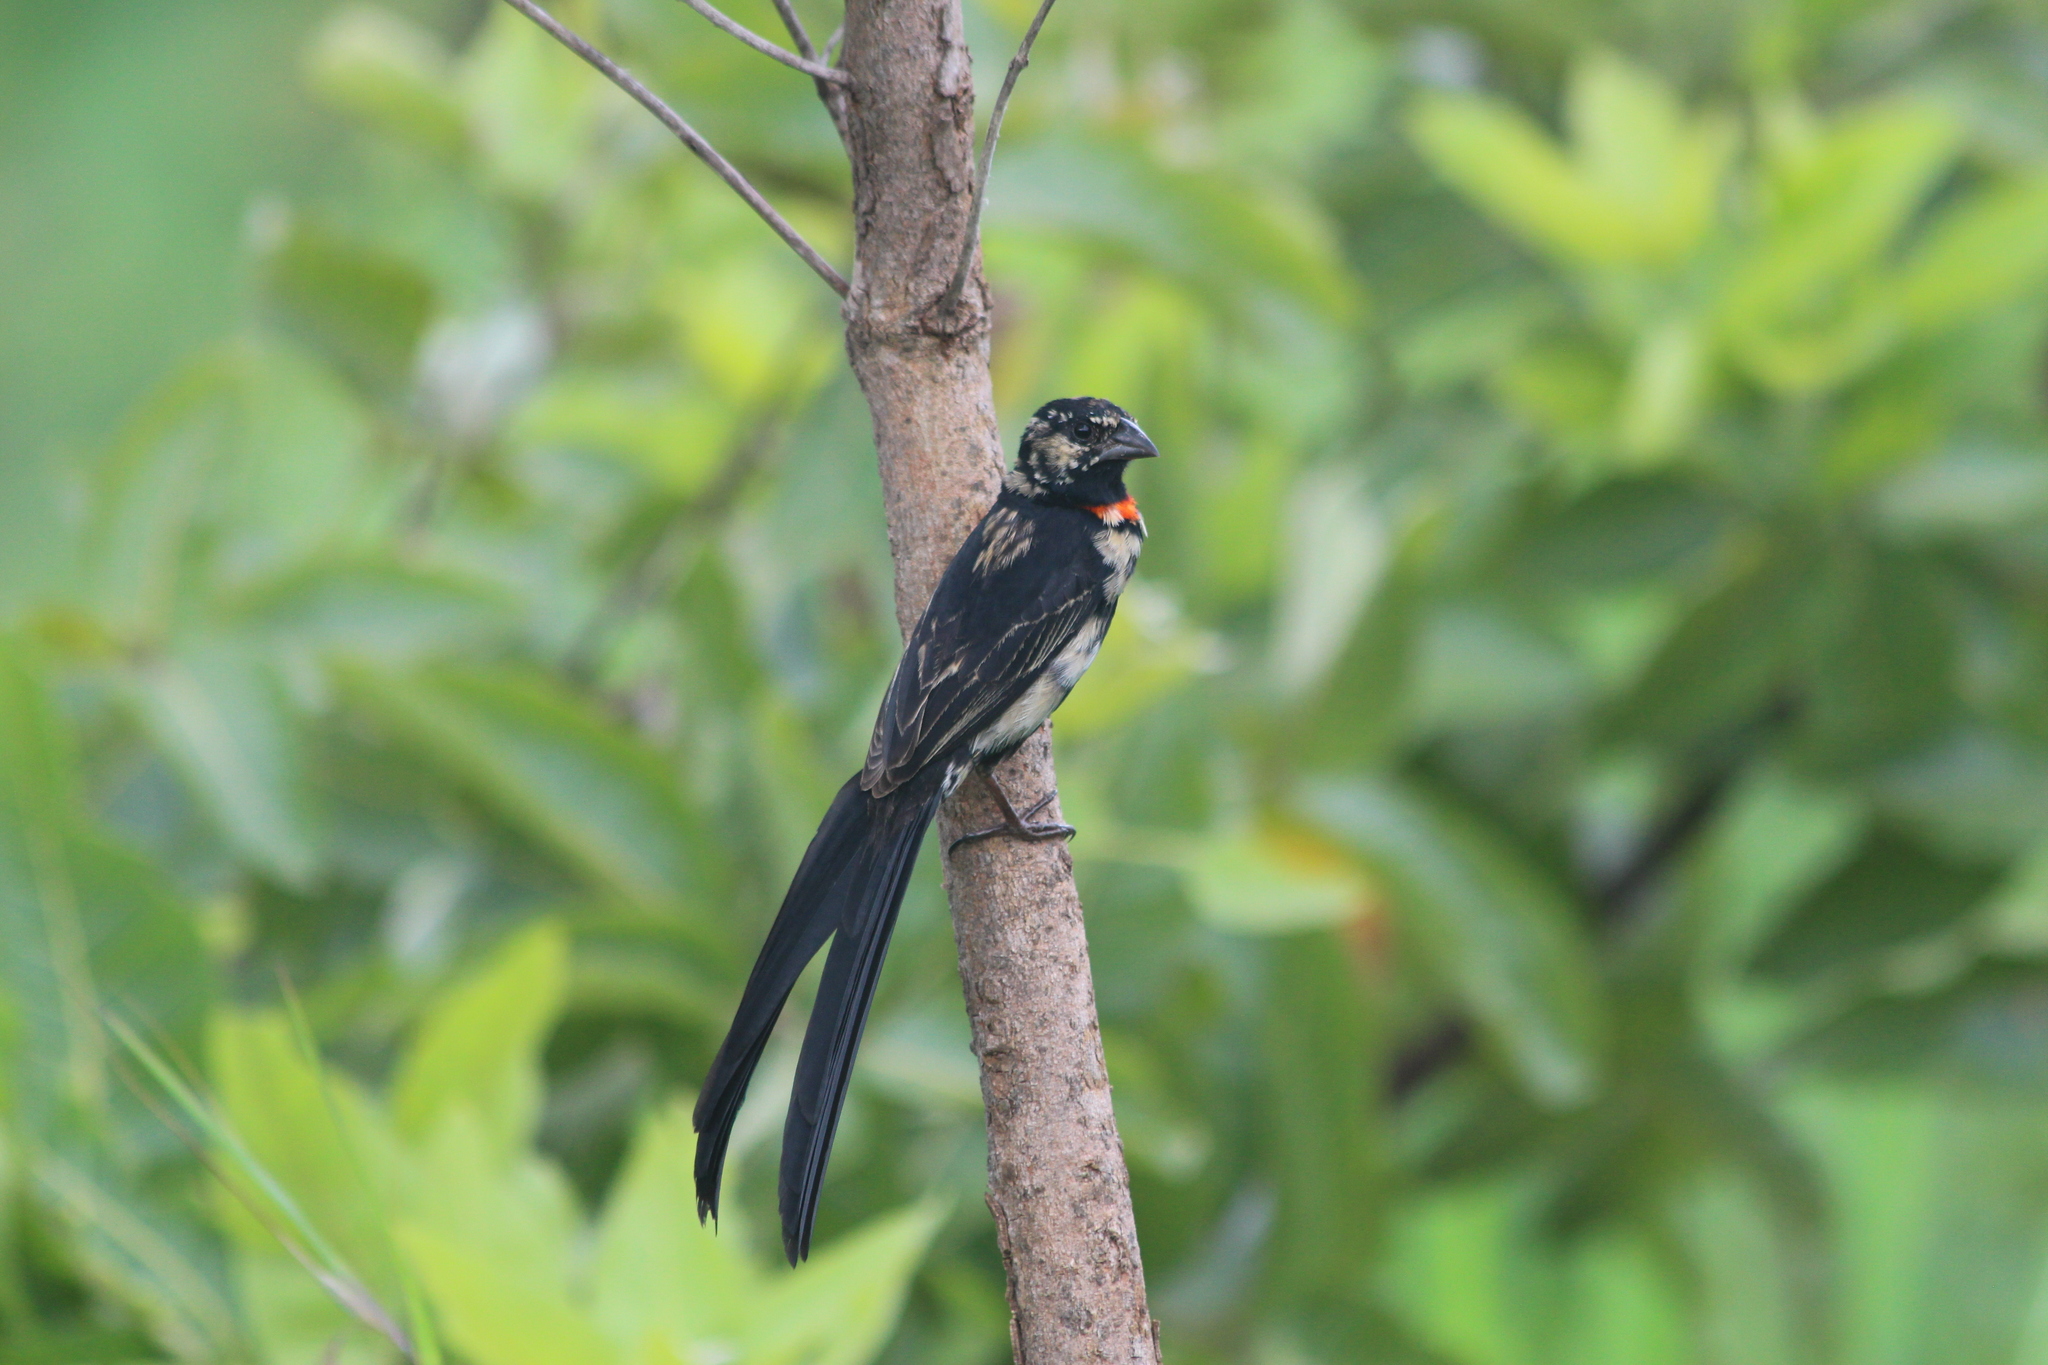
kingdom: Animalia
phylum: Chordata
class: Aves
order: Passeriformes
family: Ploceidae
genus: Euplectes
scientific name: Euplectes ardens
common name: Red-collared widowbird
